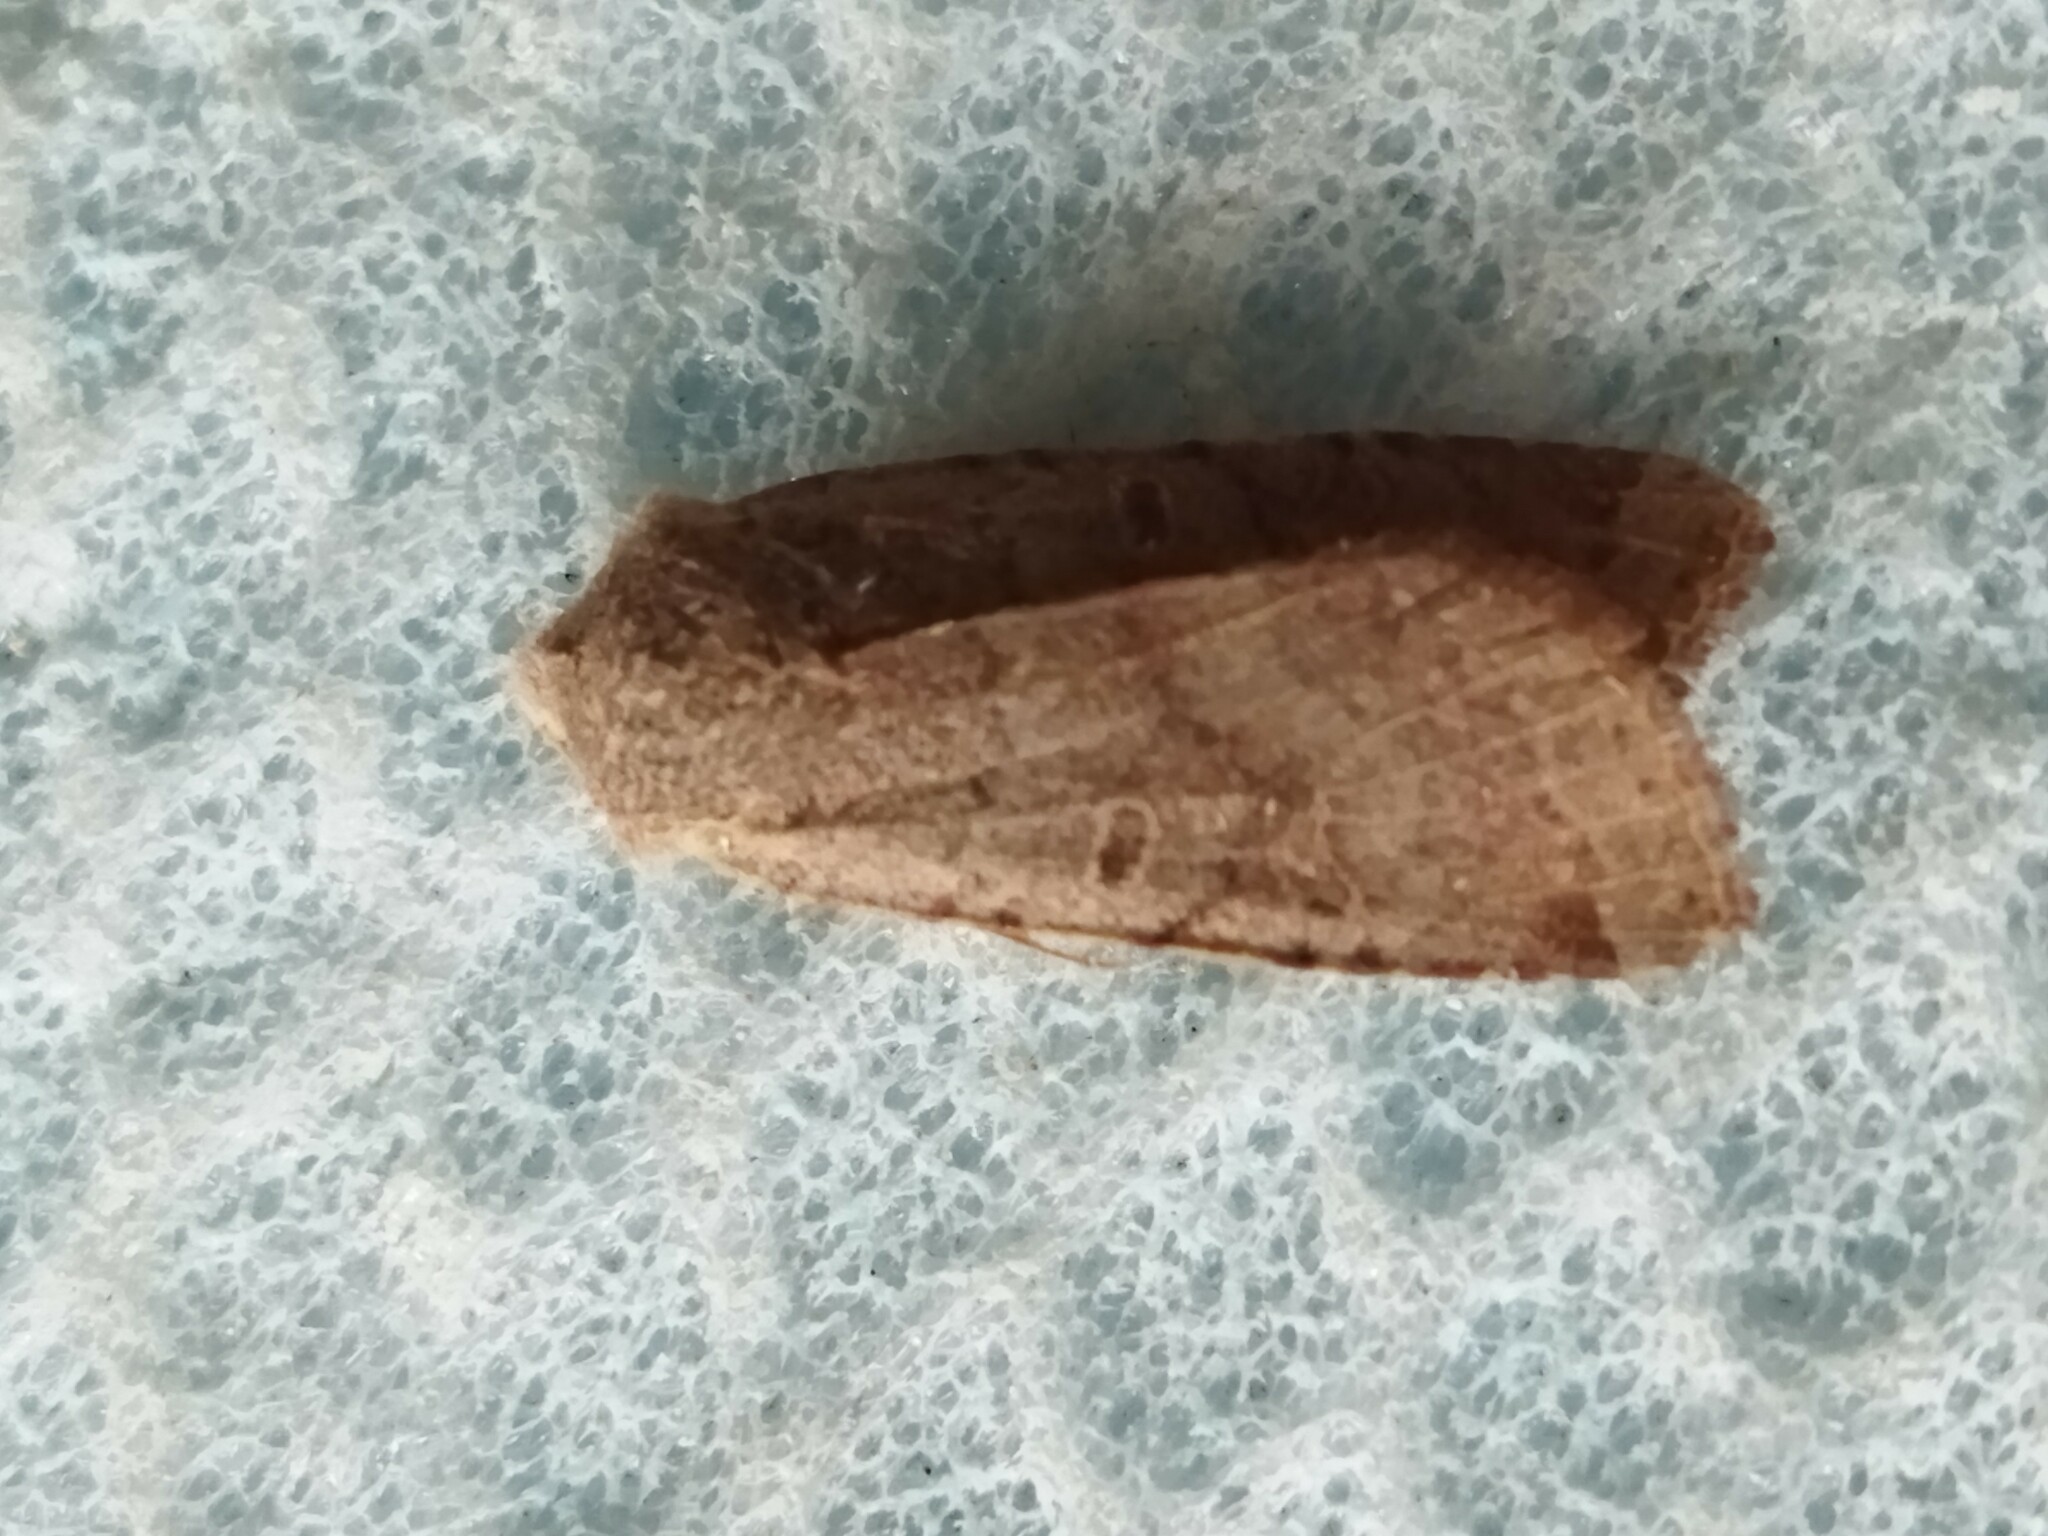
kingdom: Animalia
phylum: Arthropoda
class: Insecta
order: Lepidoptera
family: Noctuidae
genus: Agrochola
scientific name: Agrochola lychnidis
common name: Beaded chestnut
